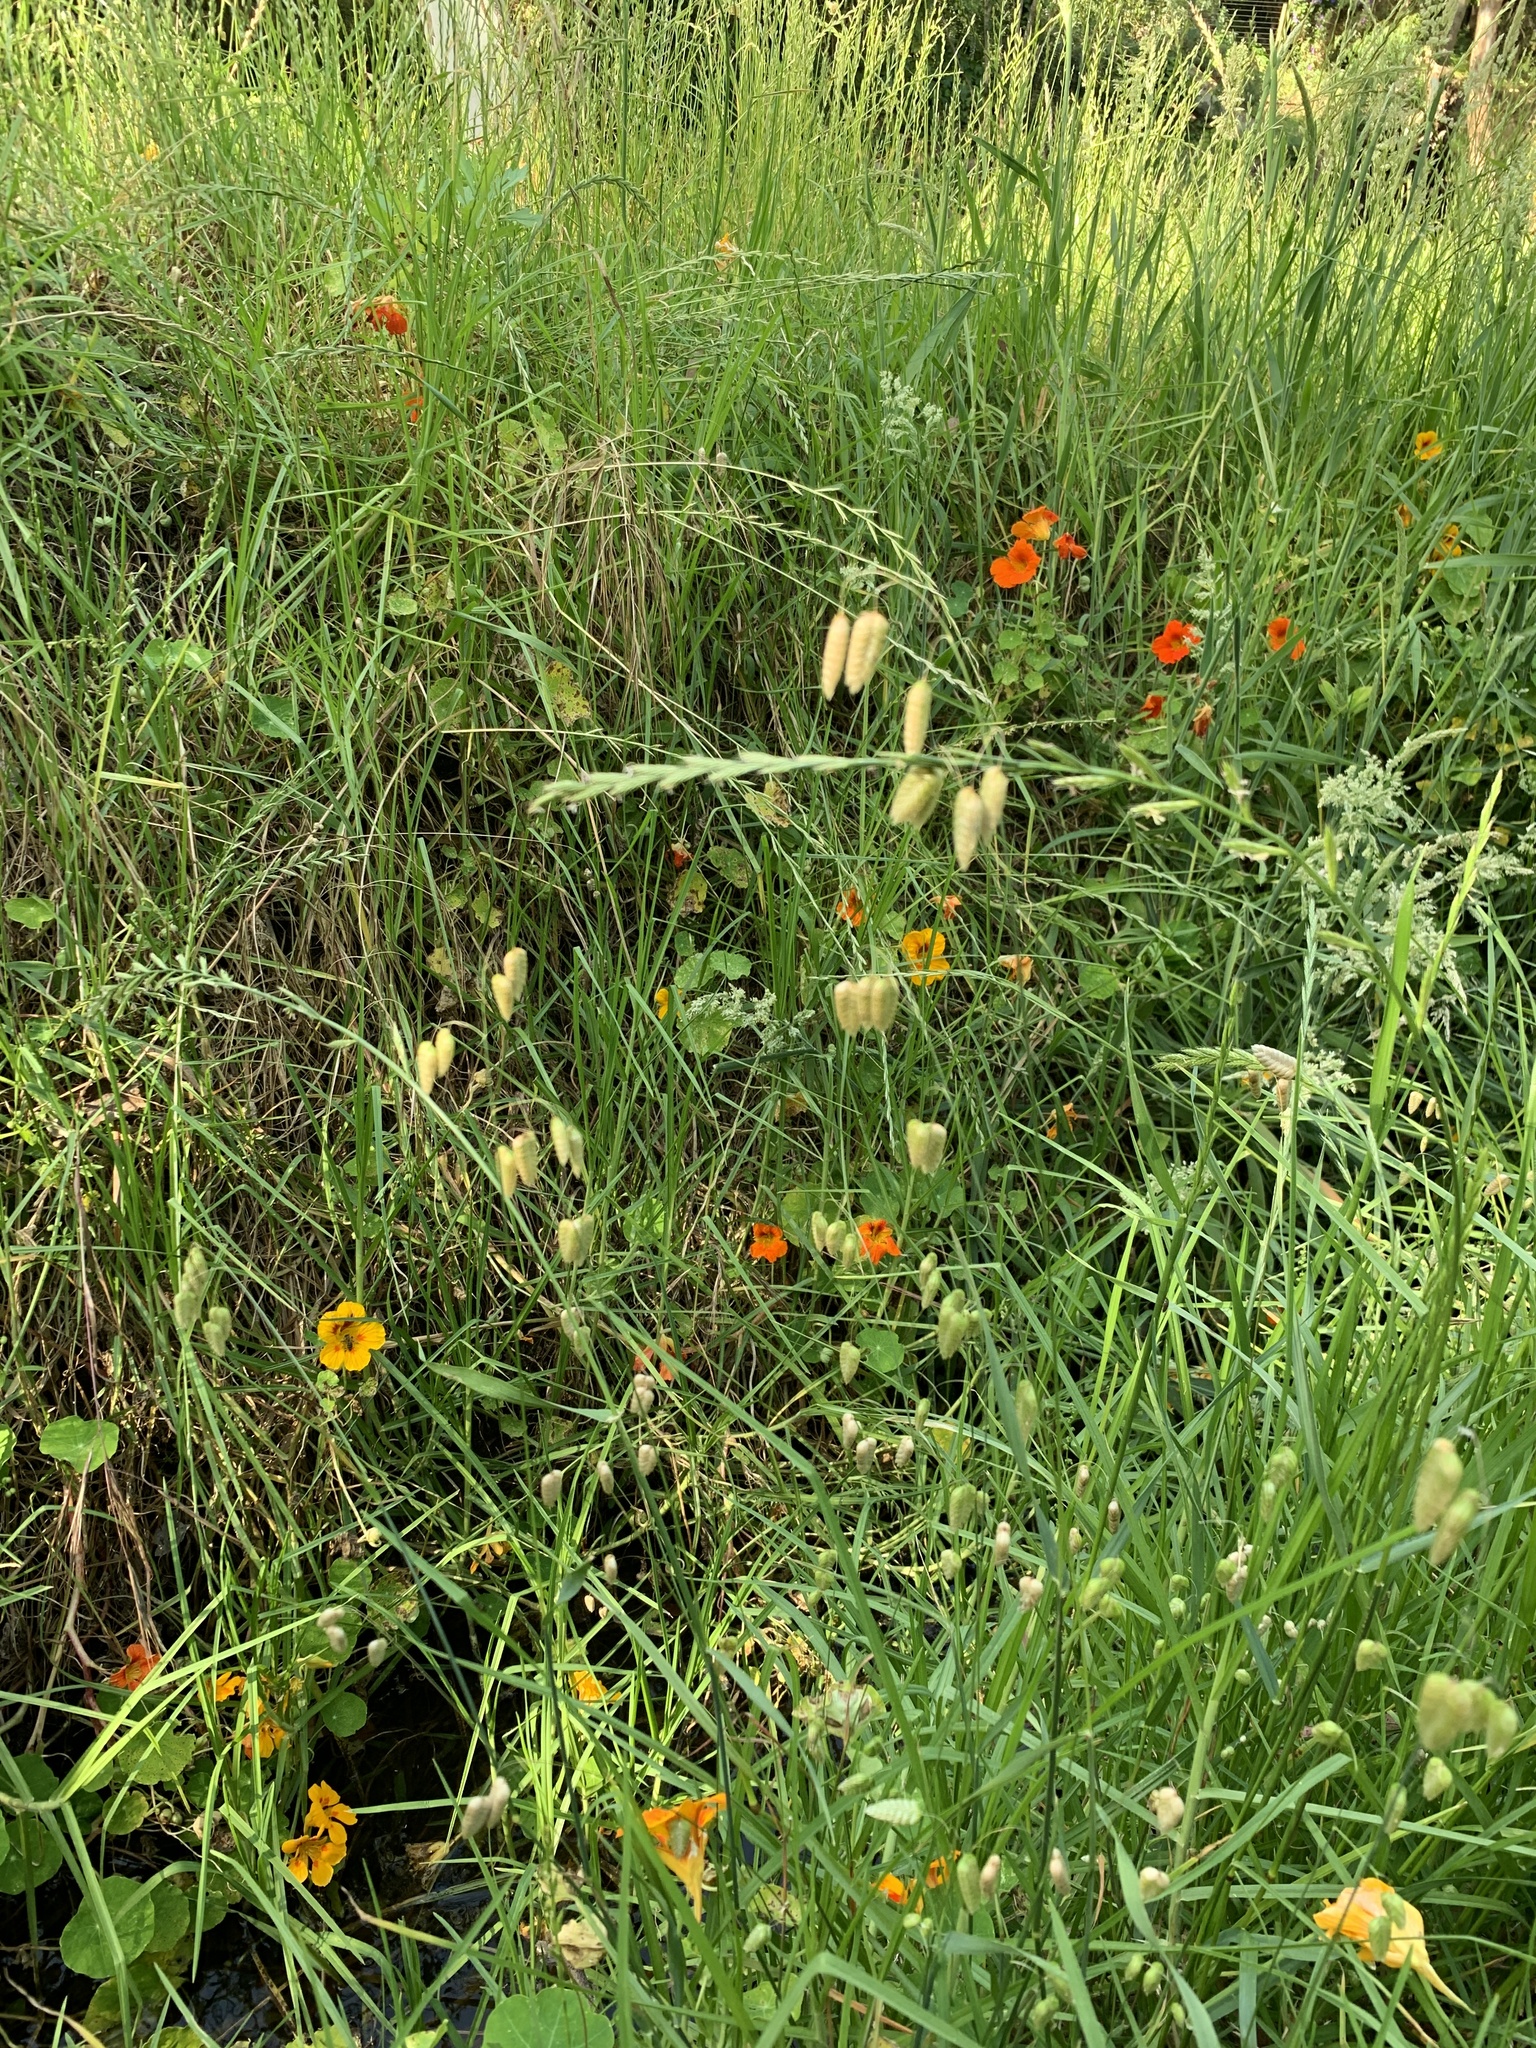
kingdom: Plantae
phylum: Tracheophyta
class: Liliopsida
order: Poales
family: Poaceae
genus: Briza
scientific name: Briza maxima
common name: Big quakinggrass
